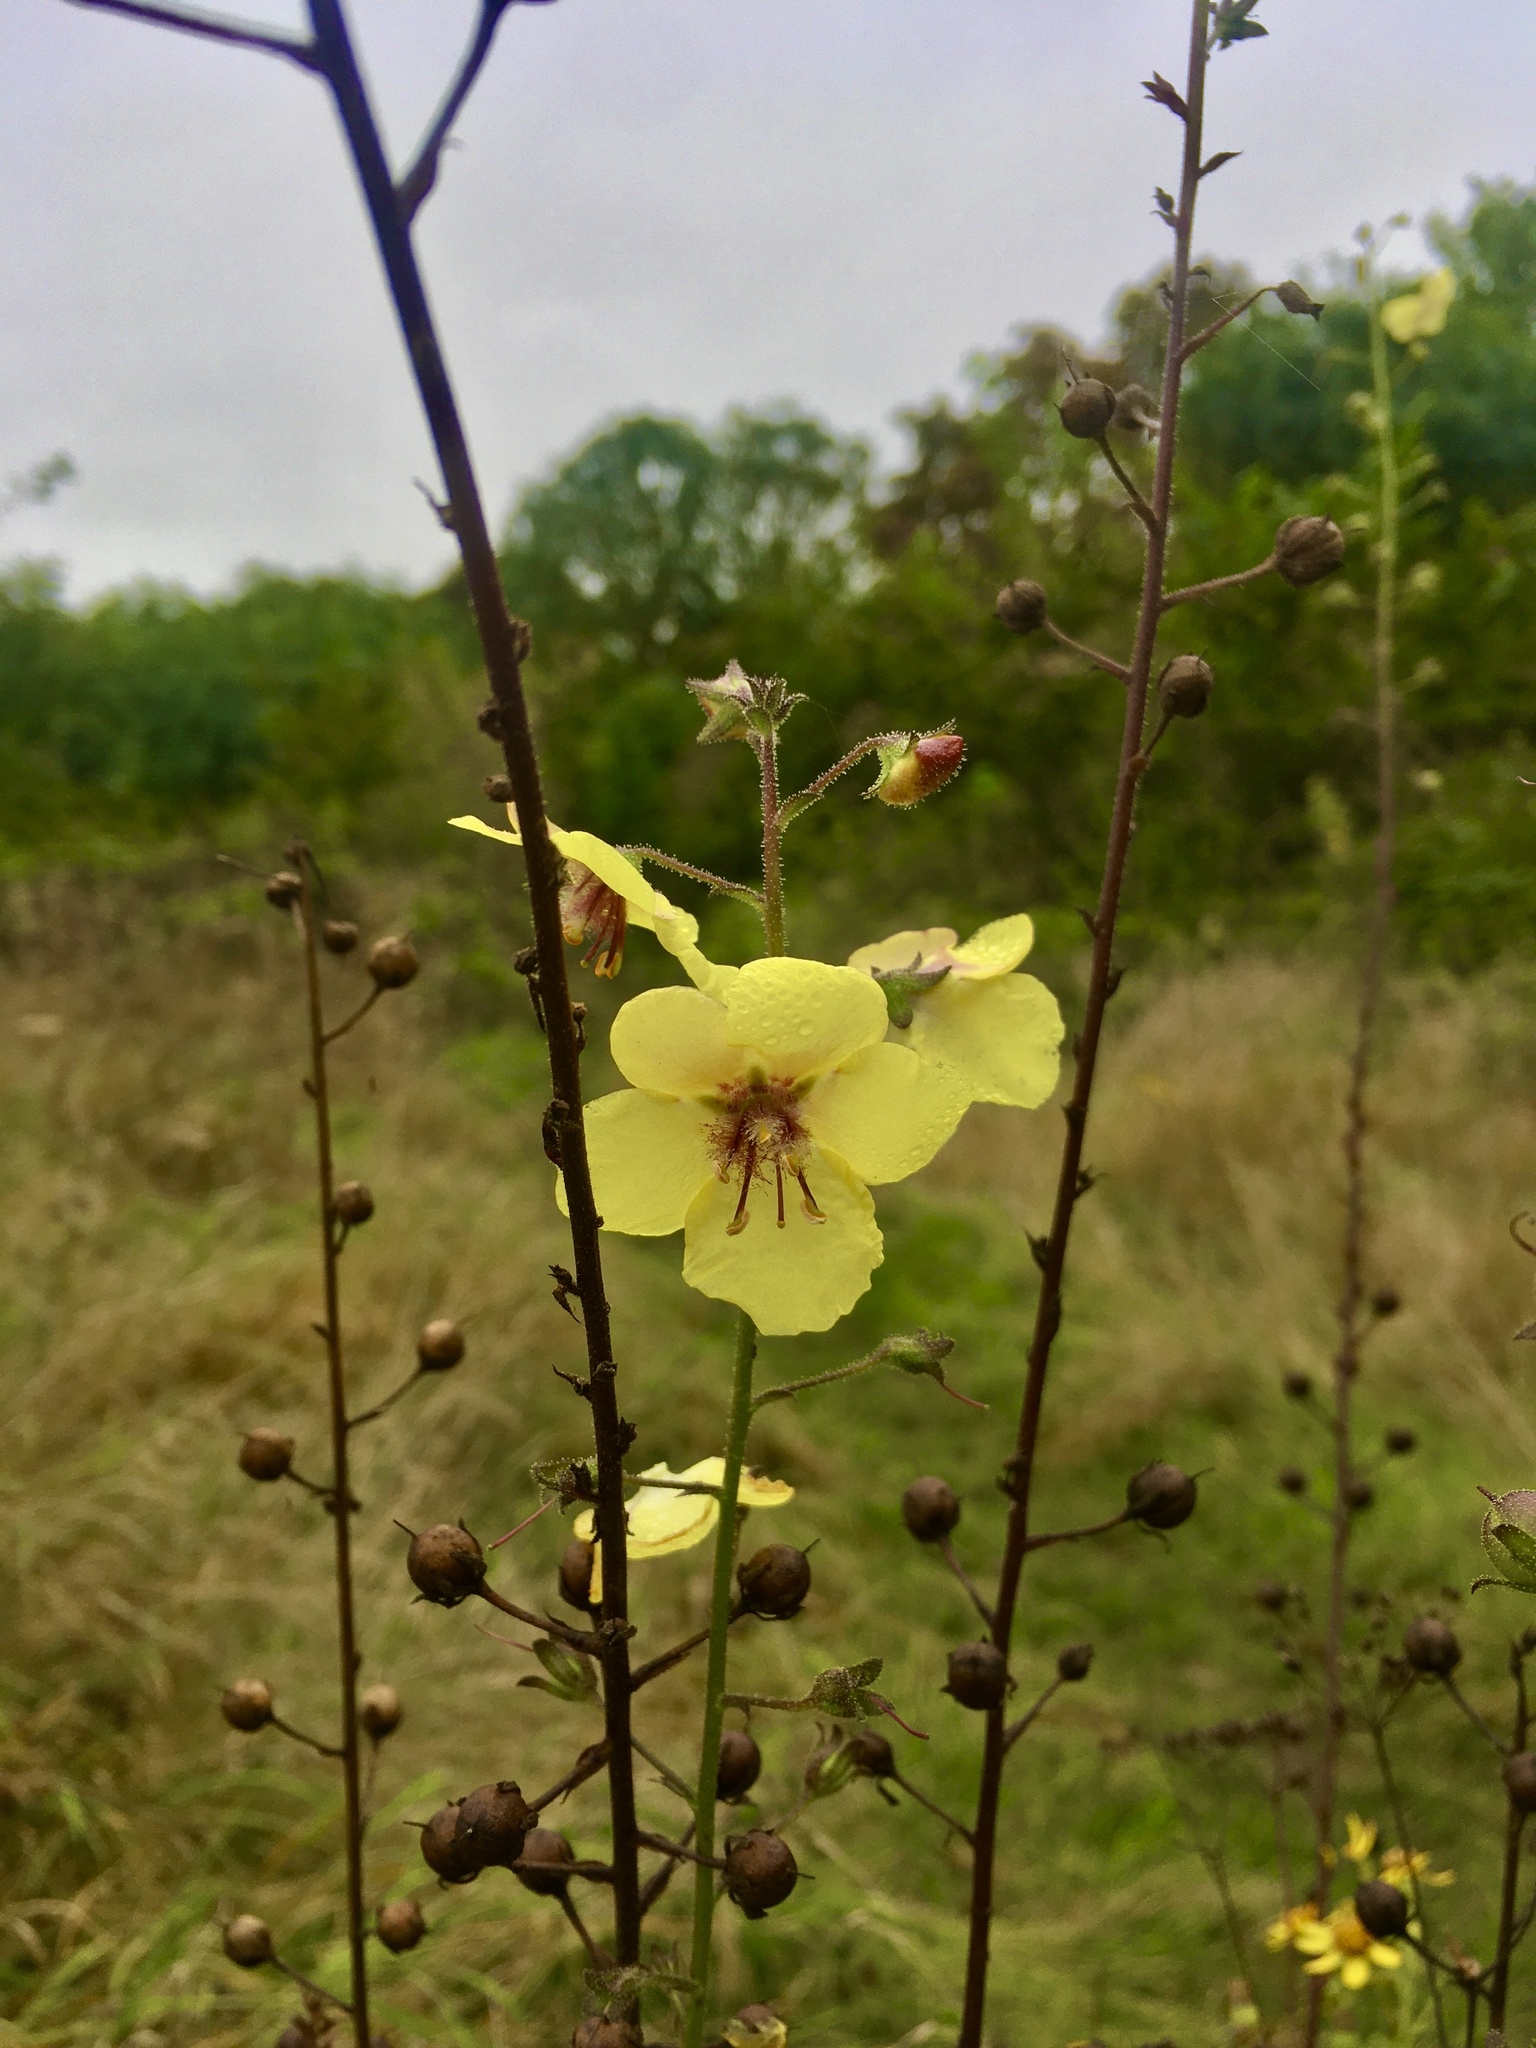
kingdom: Plantae
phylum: Tracheophyta
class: Magnoliopsida
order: Lamiales
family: Scrophulariaceae
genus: Verbascum
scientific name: Verbascum blattaria
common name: Moth mullein
